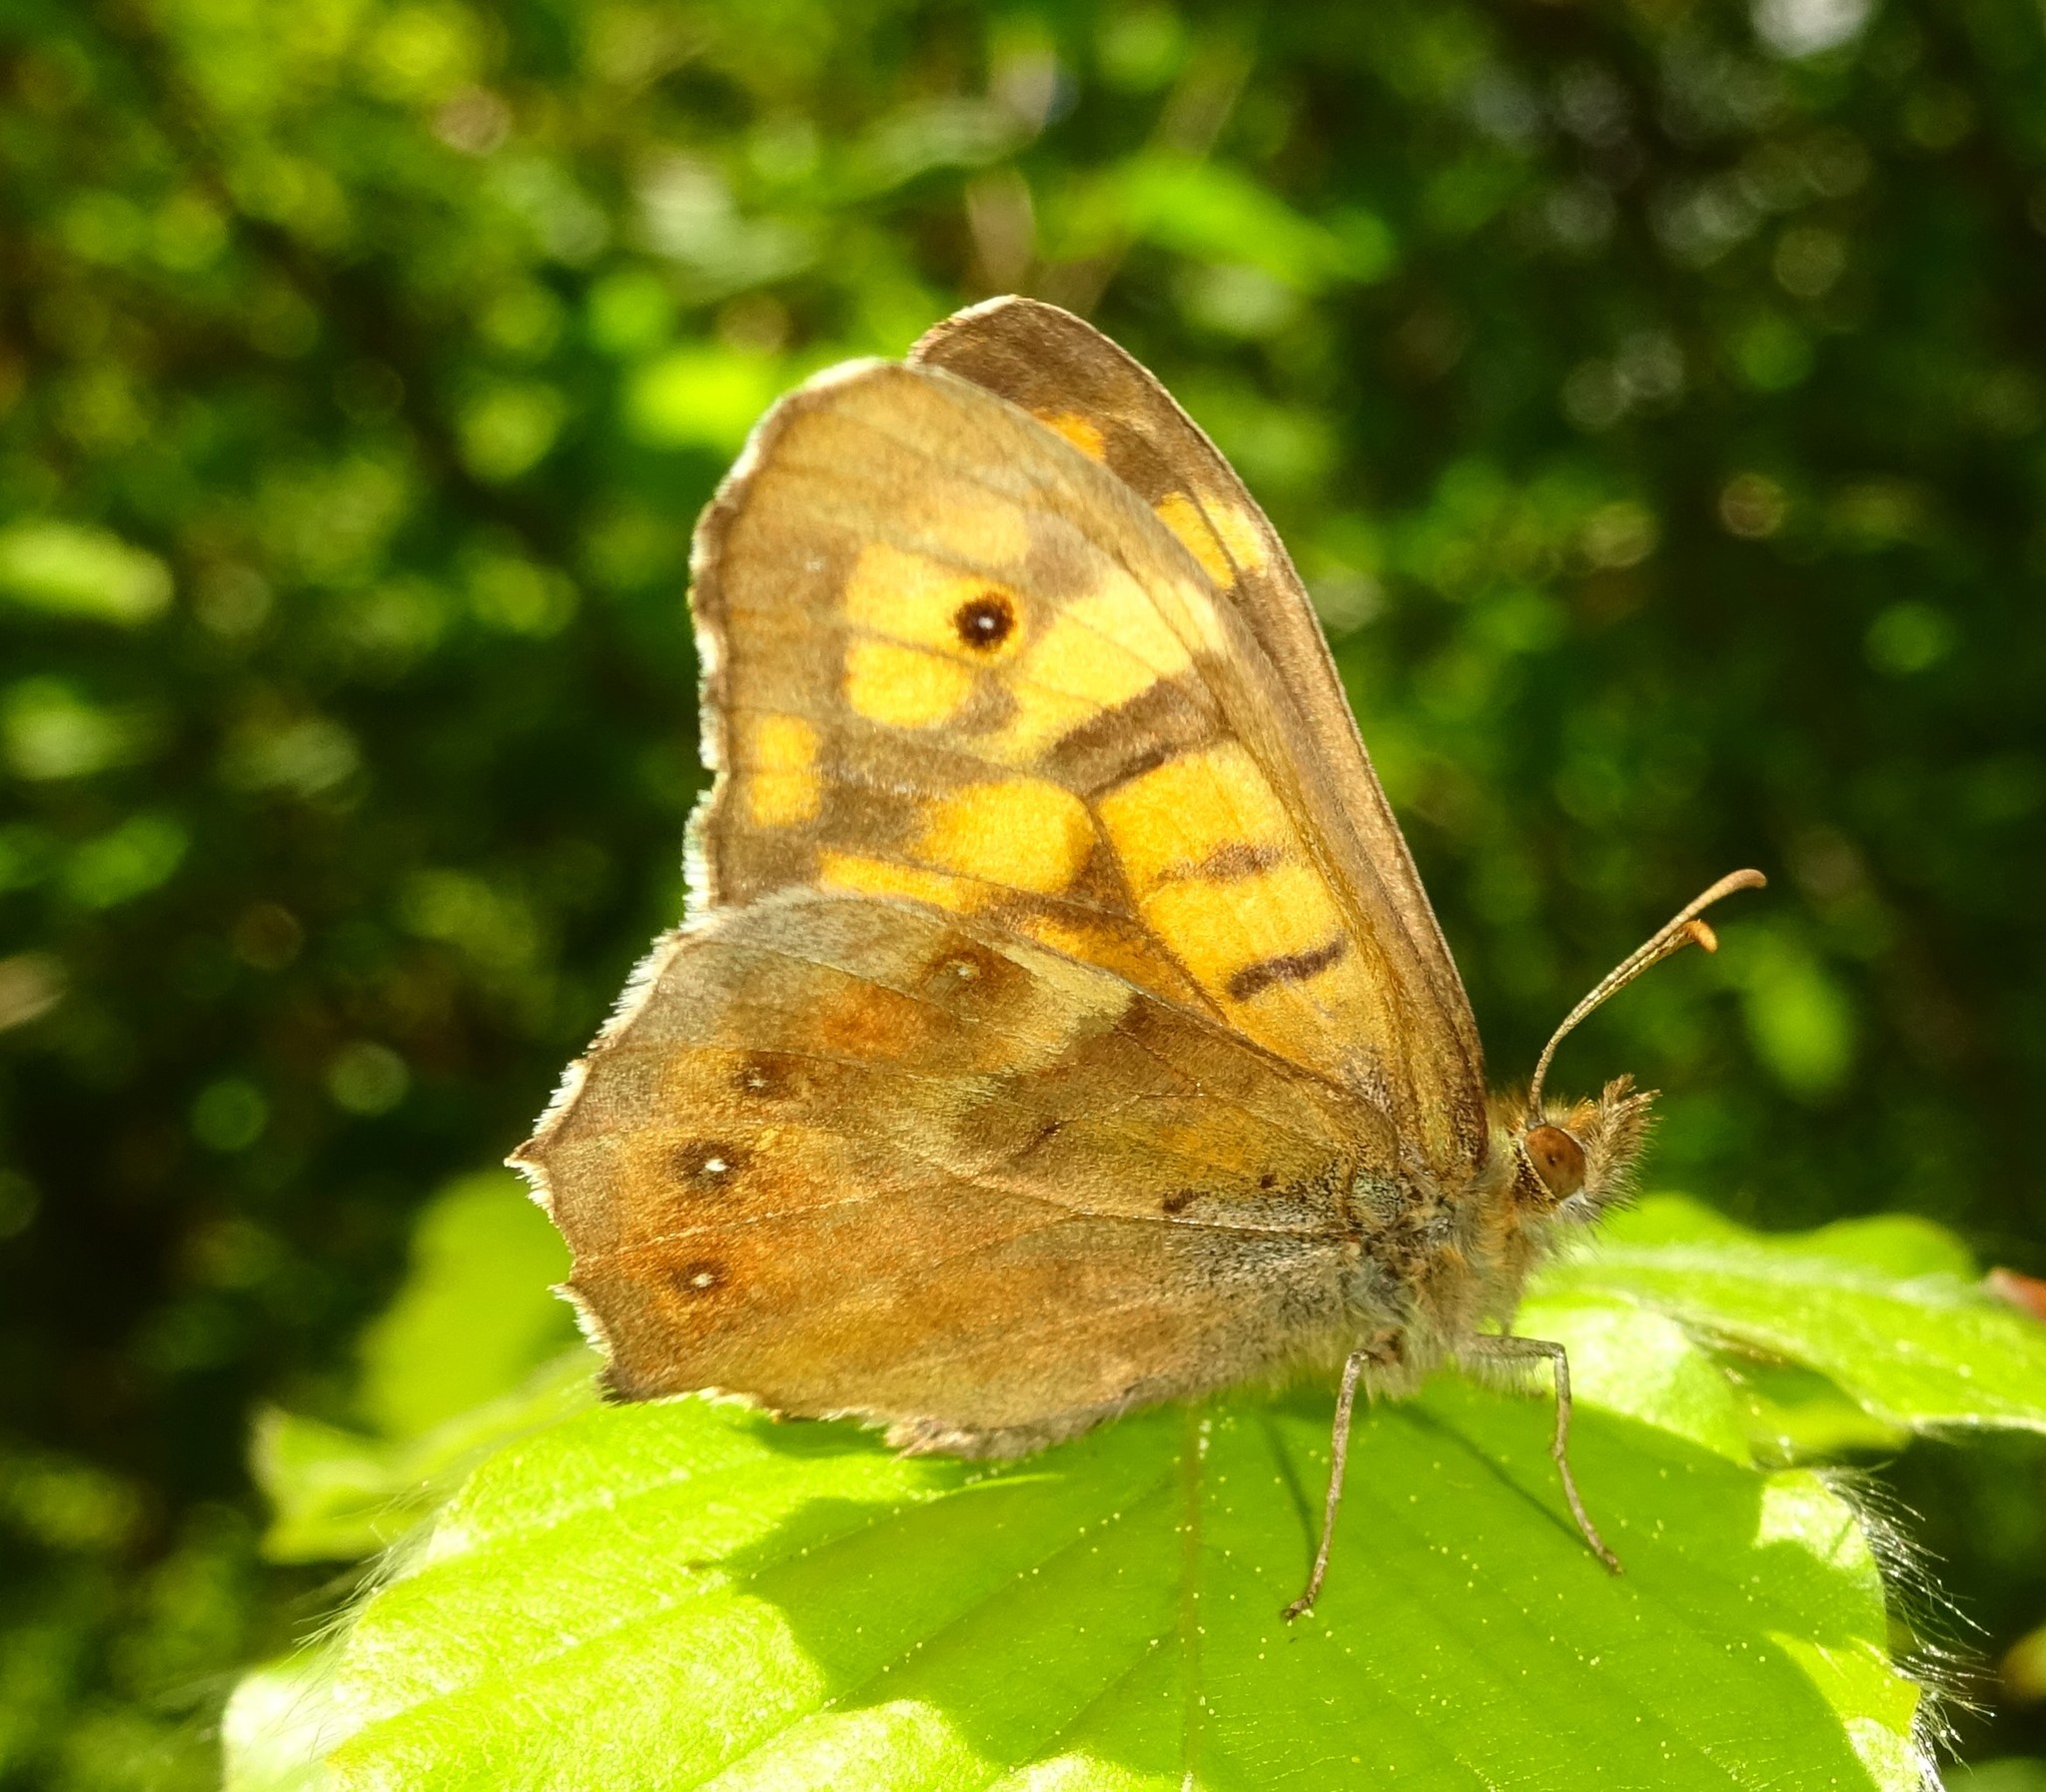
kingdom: Animalia
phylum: Arthropoda
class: Insecta
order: Lepidoptera
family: Nymphalidae
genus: Pararge
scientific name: Pararge aegeria
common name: Speckled wood
